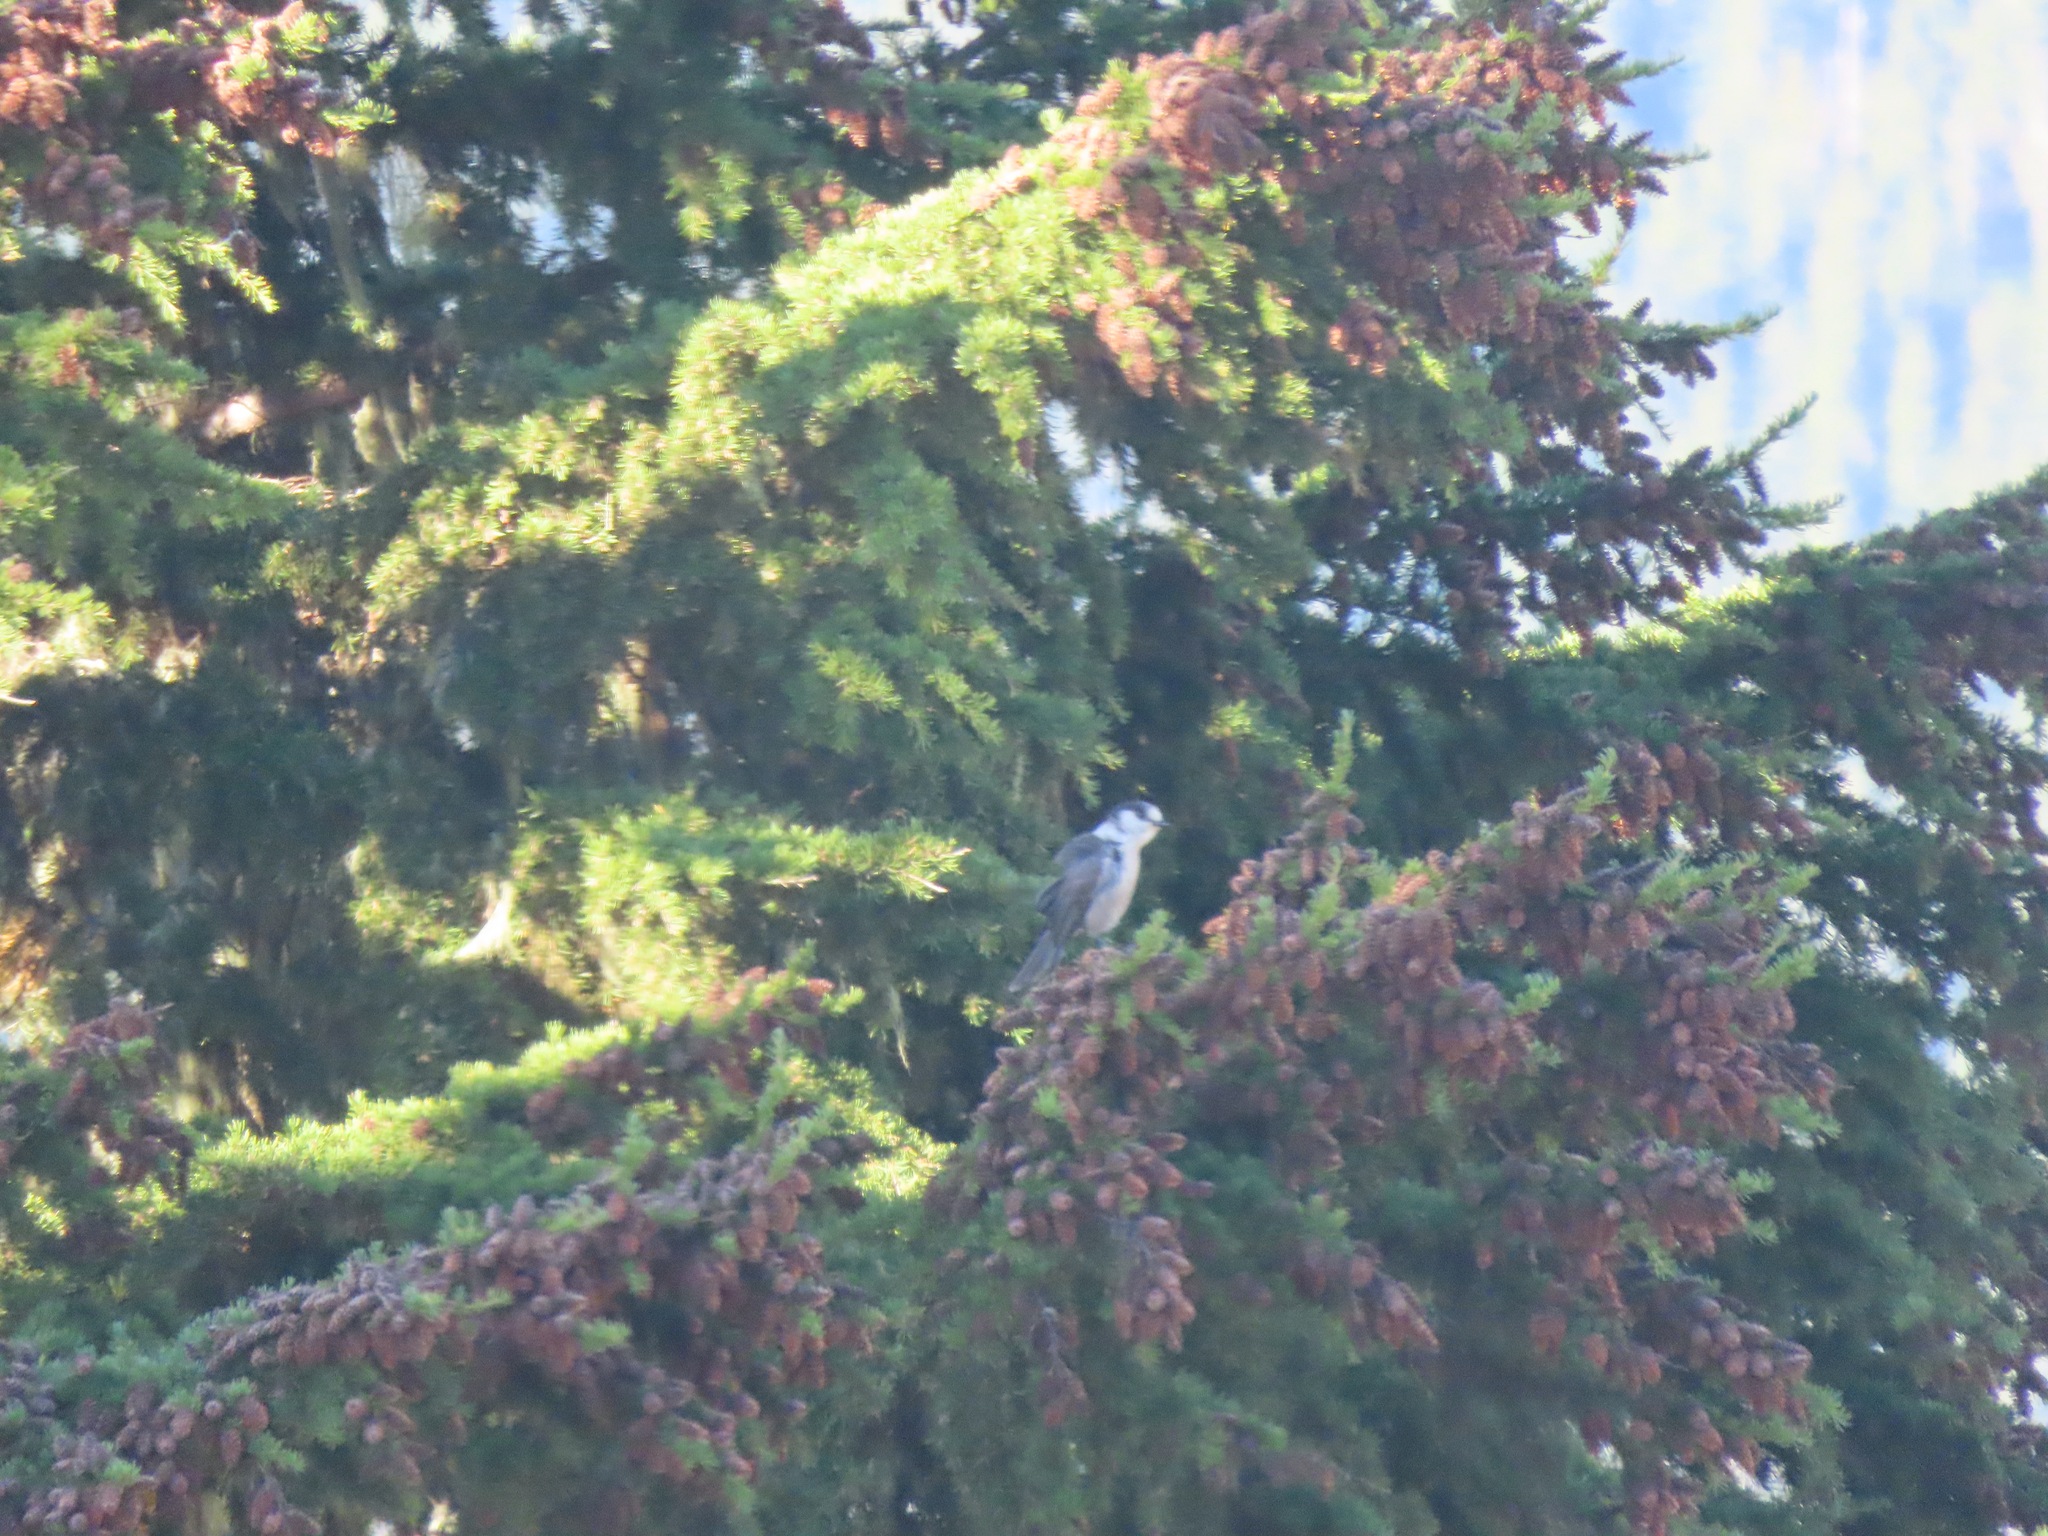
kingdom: Animalia
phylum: Chordata
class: Aves
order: Passeriformes
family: Corvidae
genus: Perisoreus
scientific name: Perisoreus canadensis
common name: Gray jay
